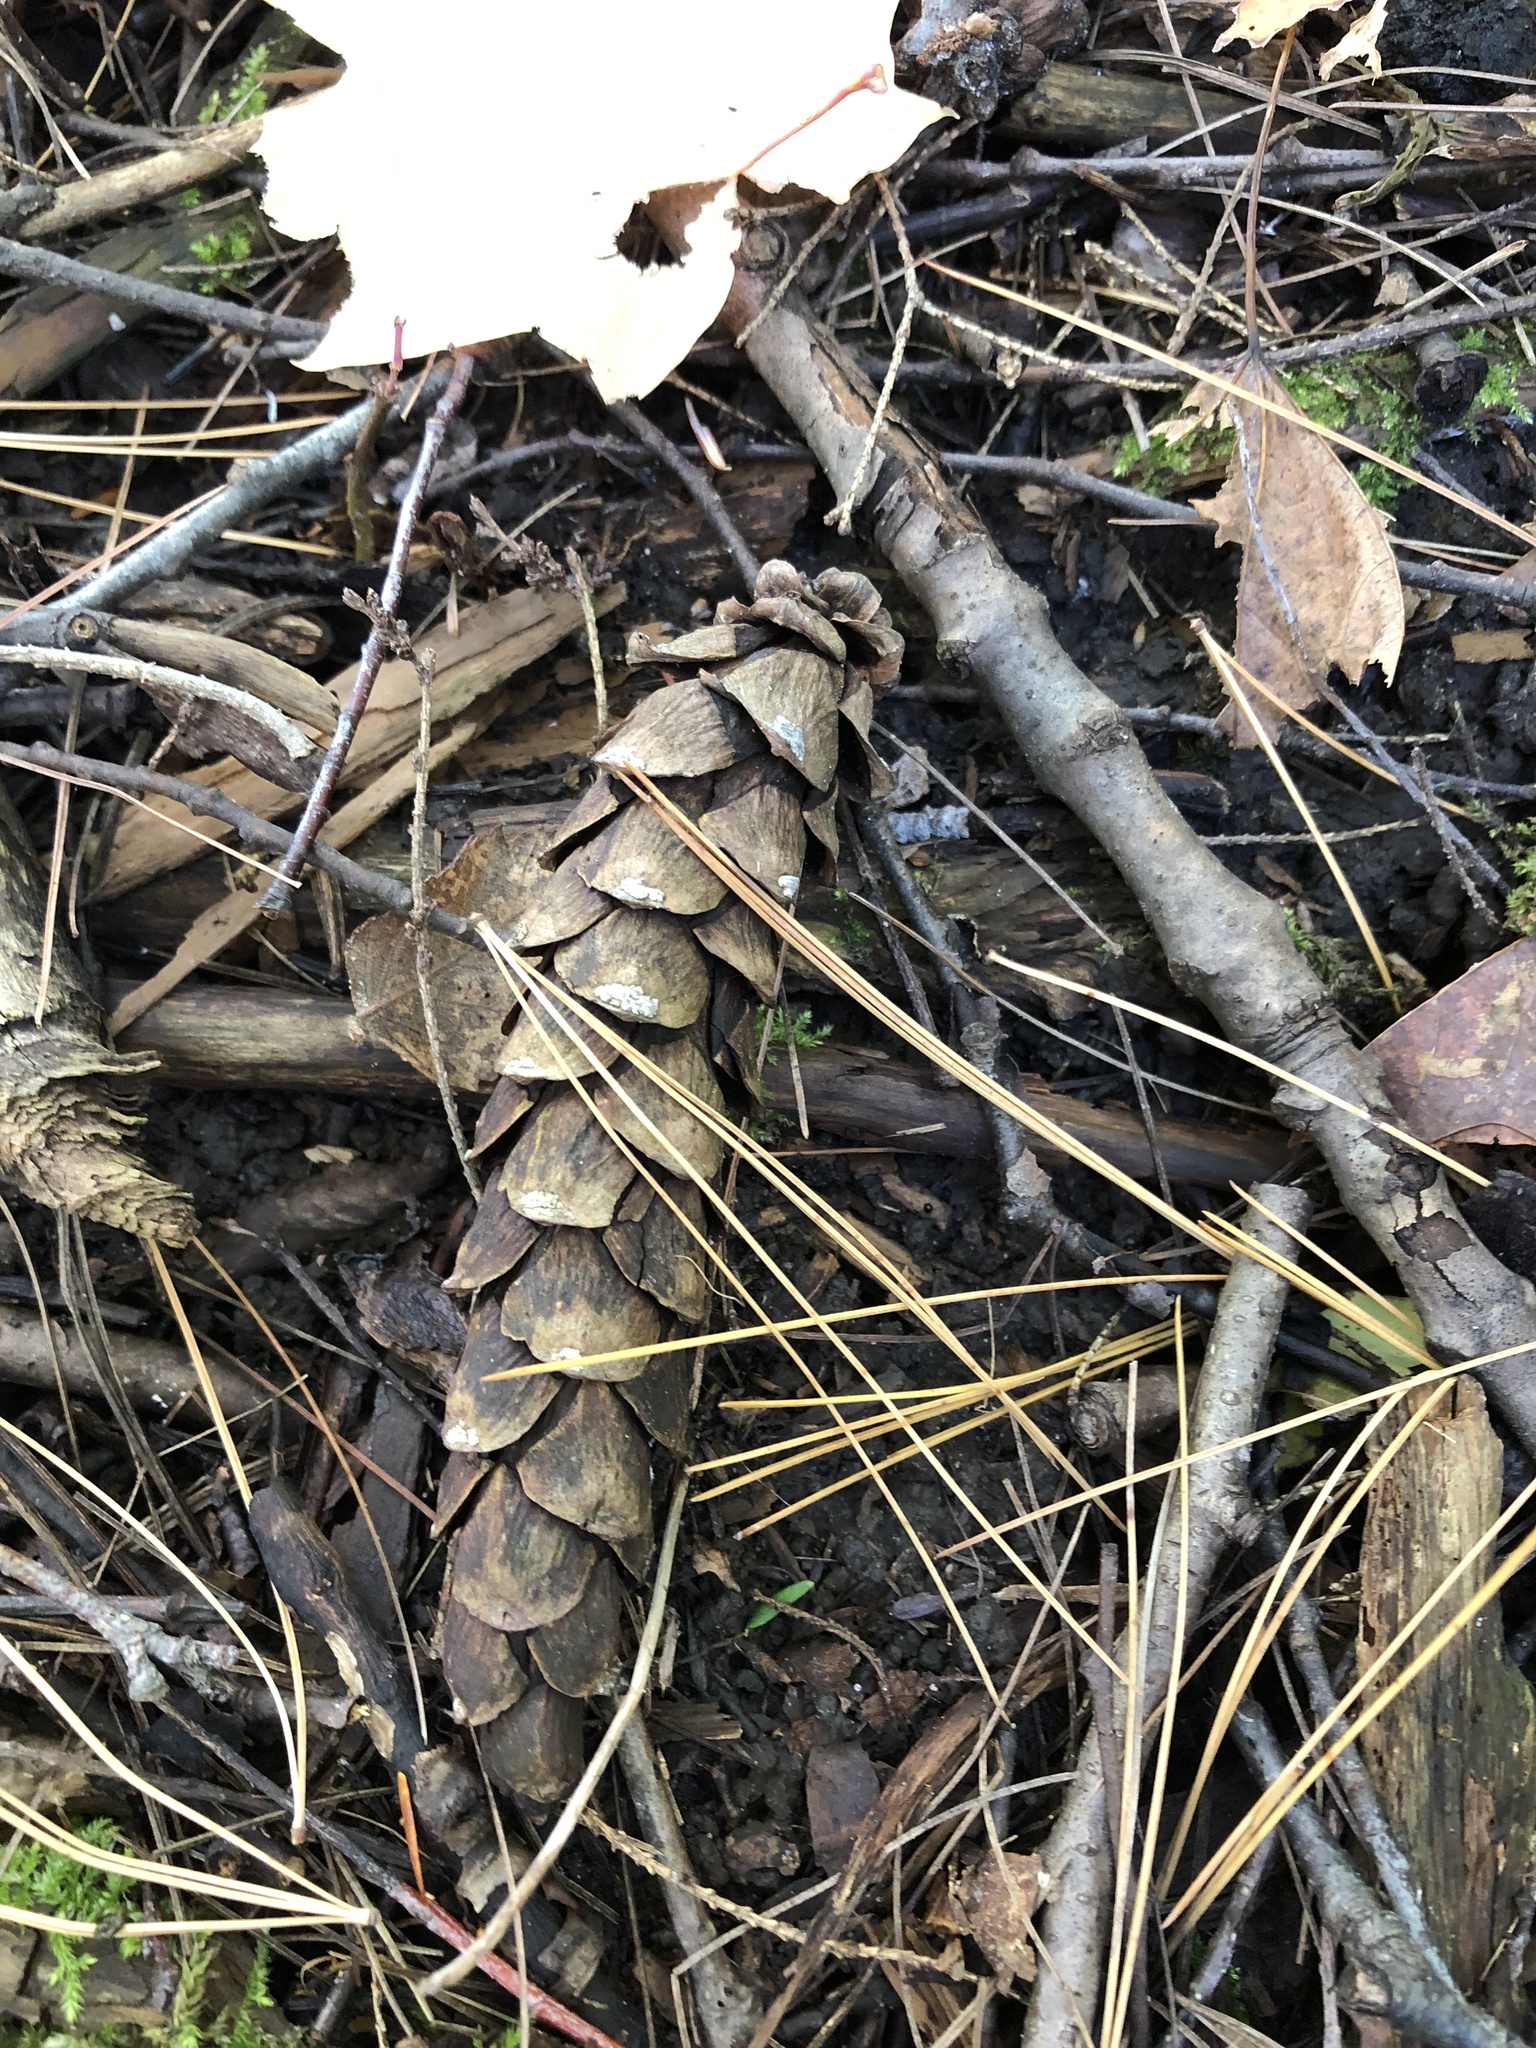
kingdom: Plantae
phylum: Tracheophyta
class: Pinopsida
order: Pinales
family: Pinaceae
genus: Pinus
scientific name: Pinus strobus
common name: Weymouth pine
